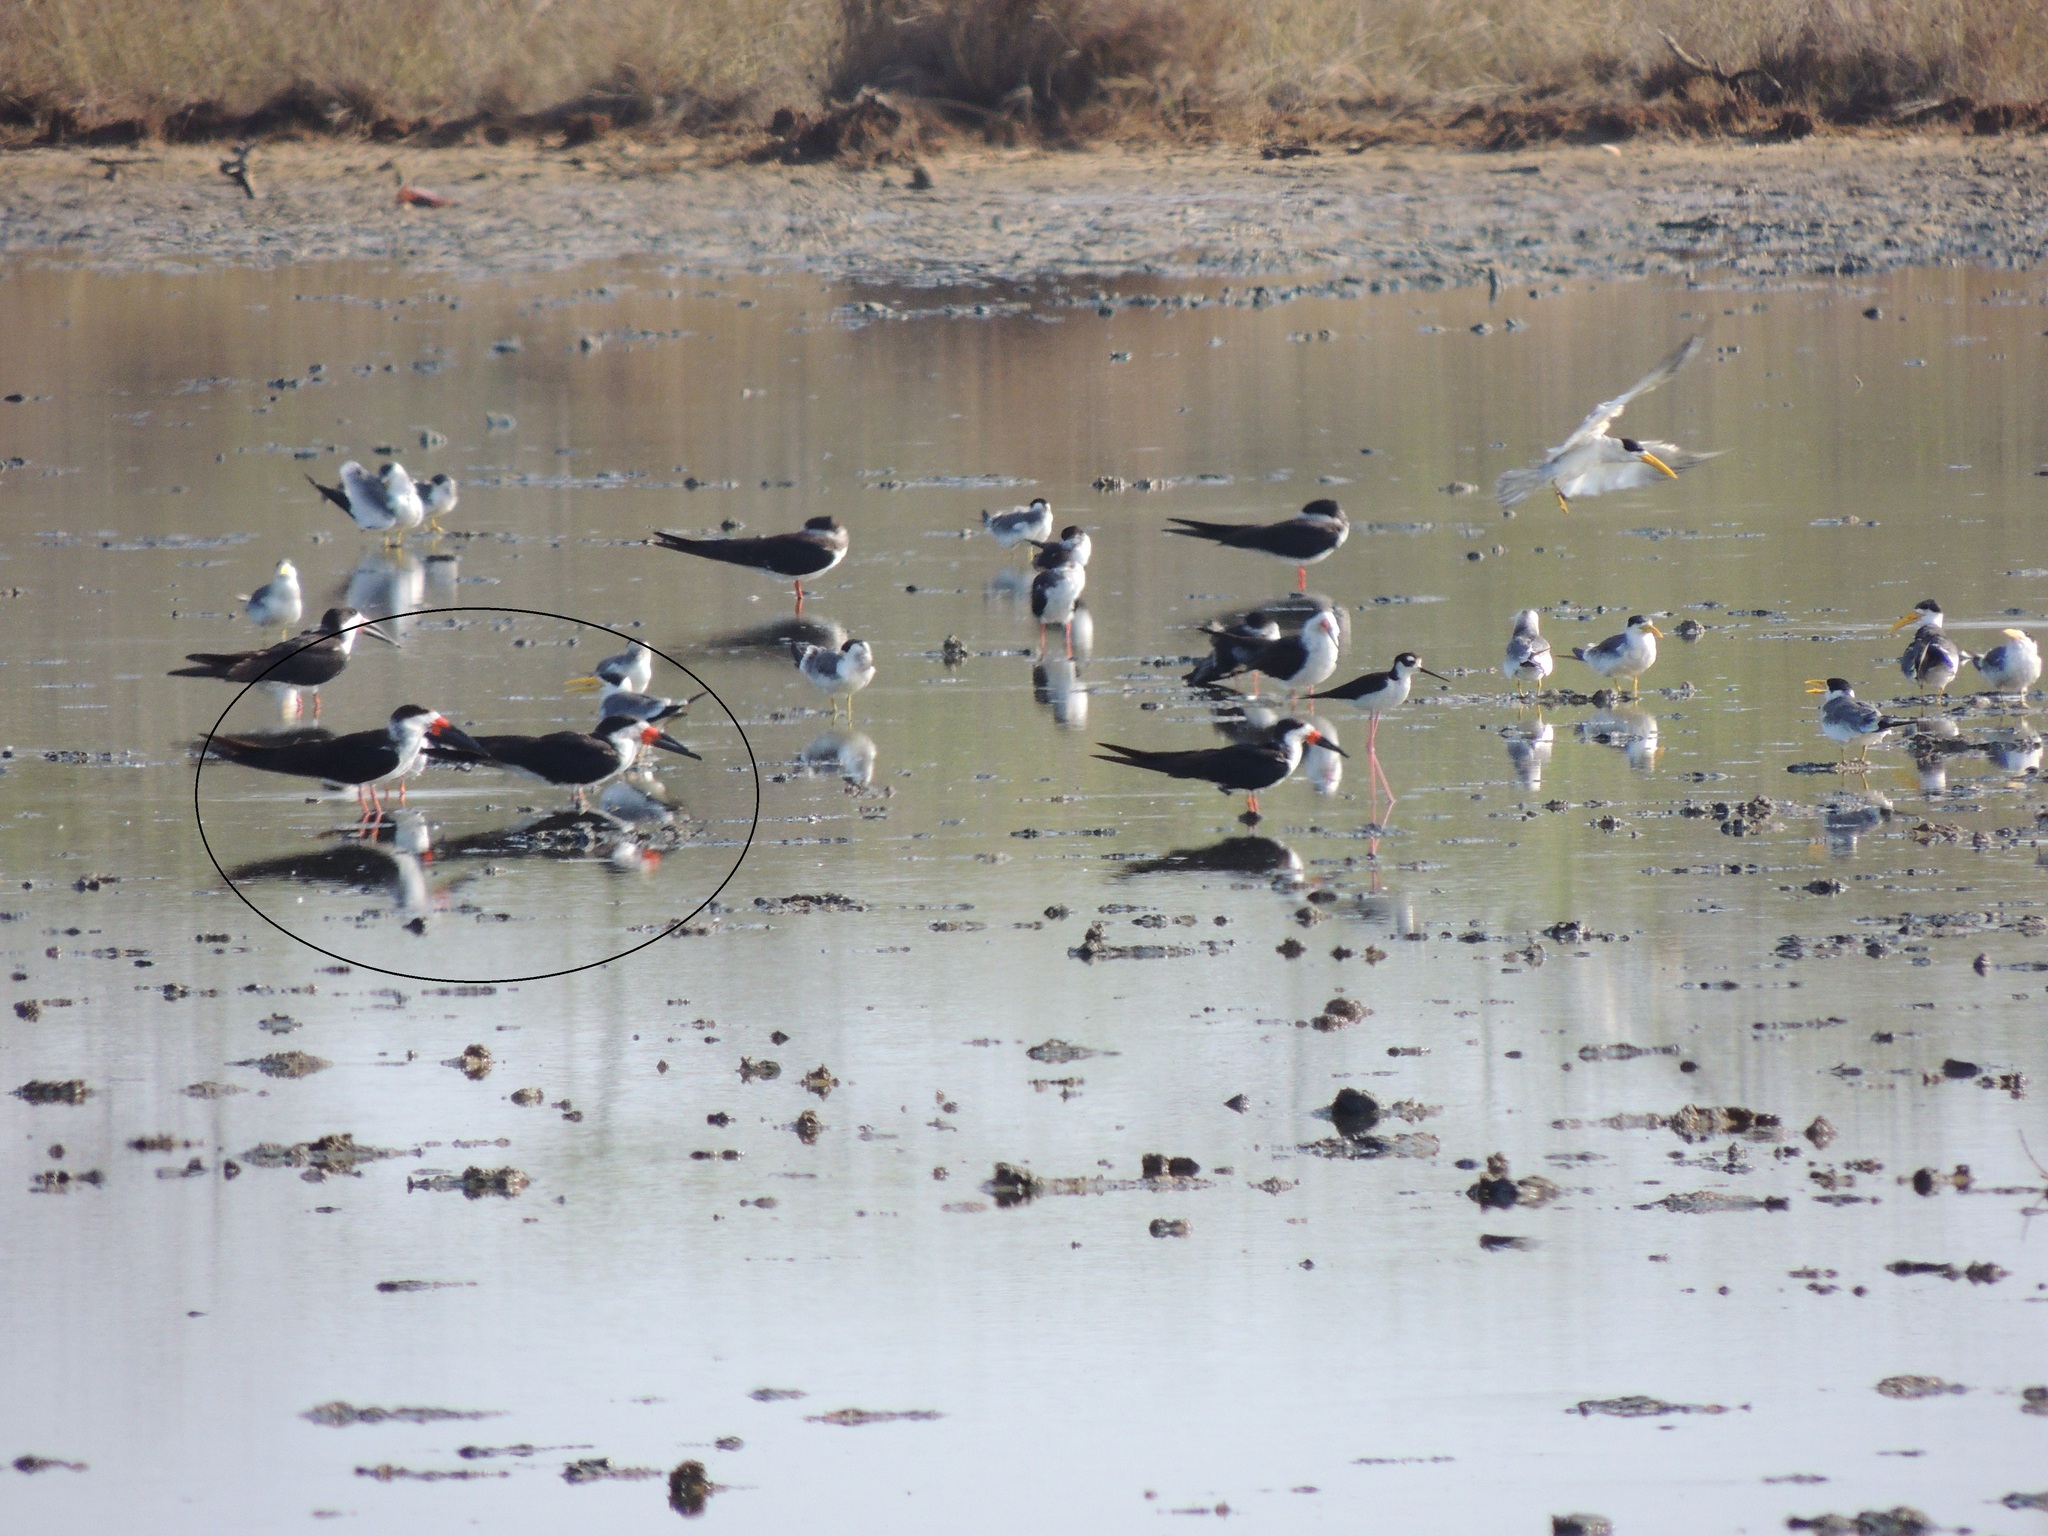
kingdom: Animalia
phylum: Chordata
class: Aves
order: Charadriiformes
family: Laridae
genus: Rynchops
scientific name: Rynchops niger
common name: Black skimmer
